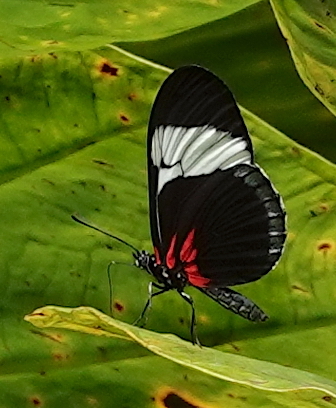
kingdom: Animalia
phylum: Arthropoda
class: Insecta
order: Lepidoptera
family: Nymphalidae
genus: Heliconius
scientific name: Heliconius sapho
